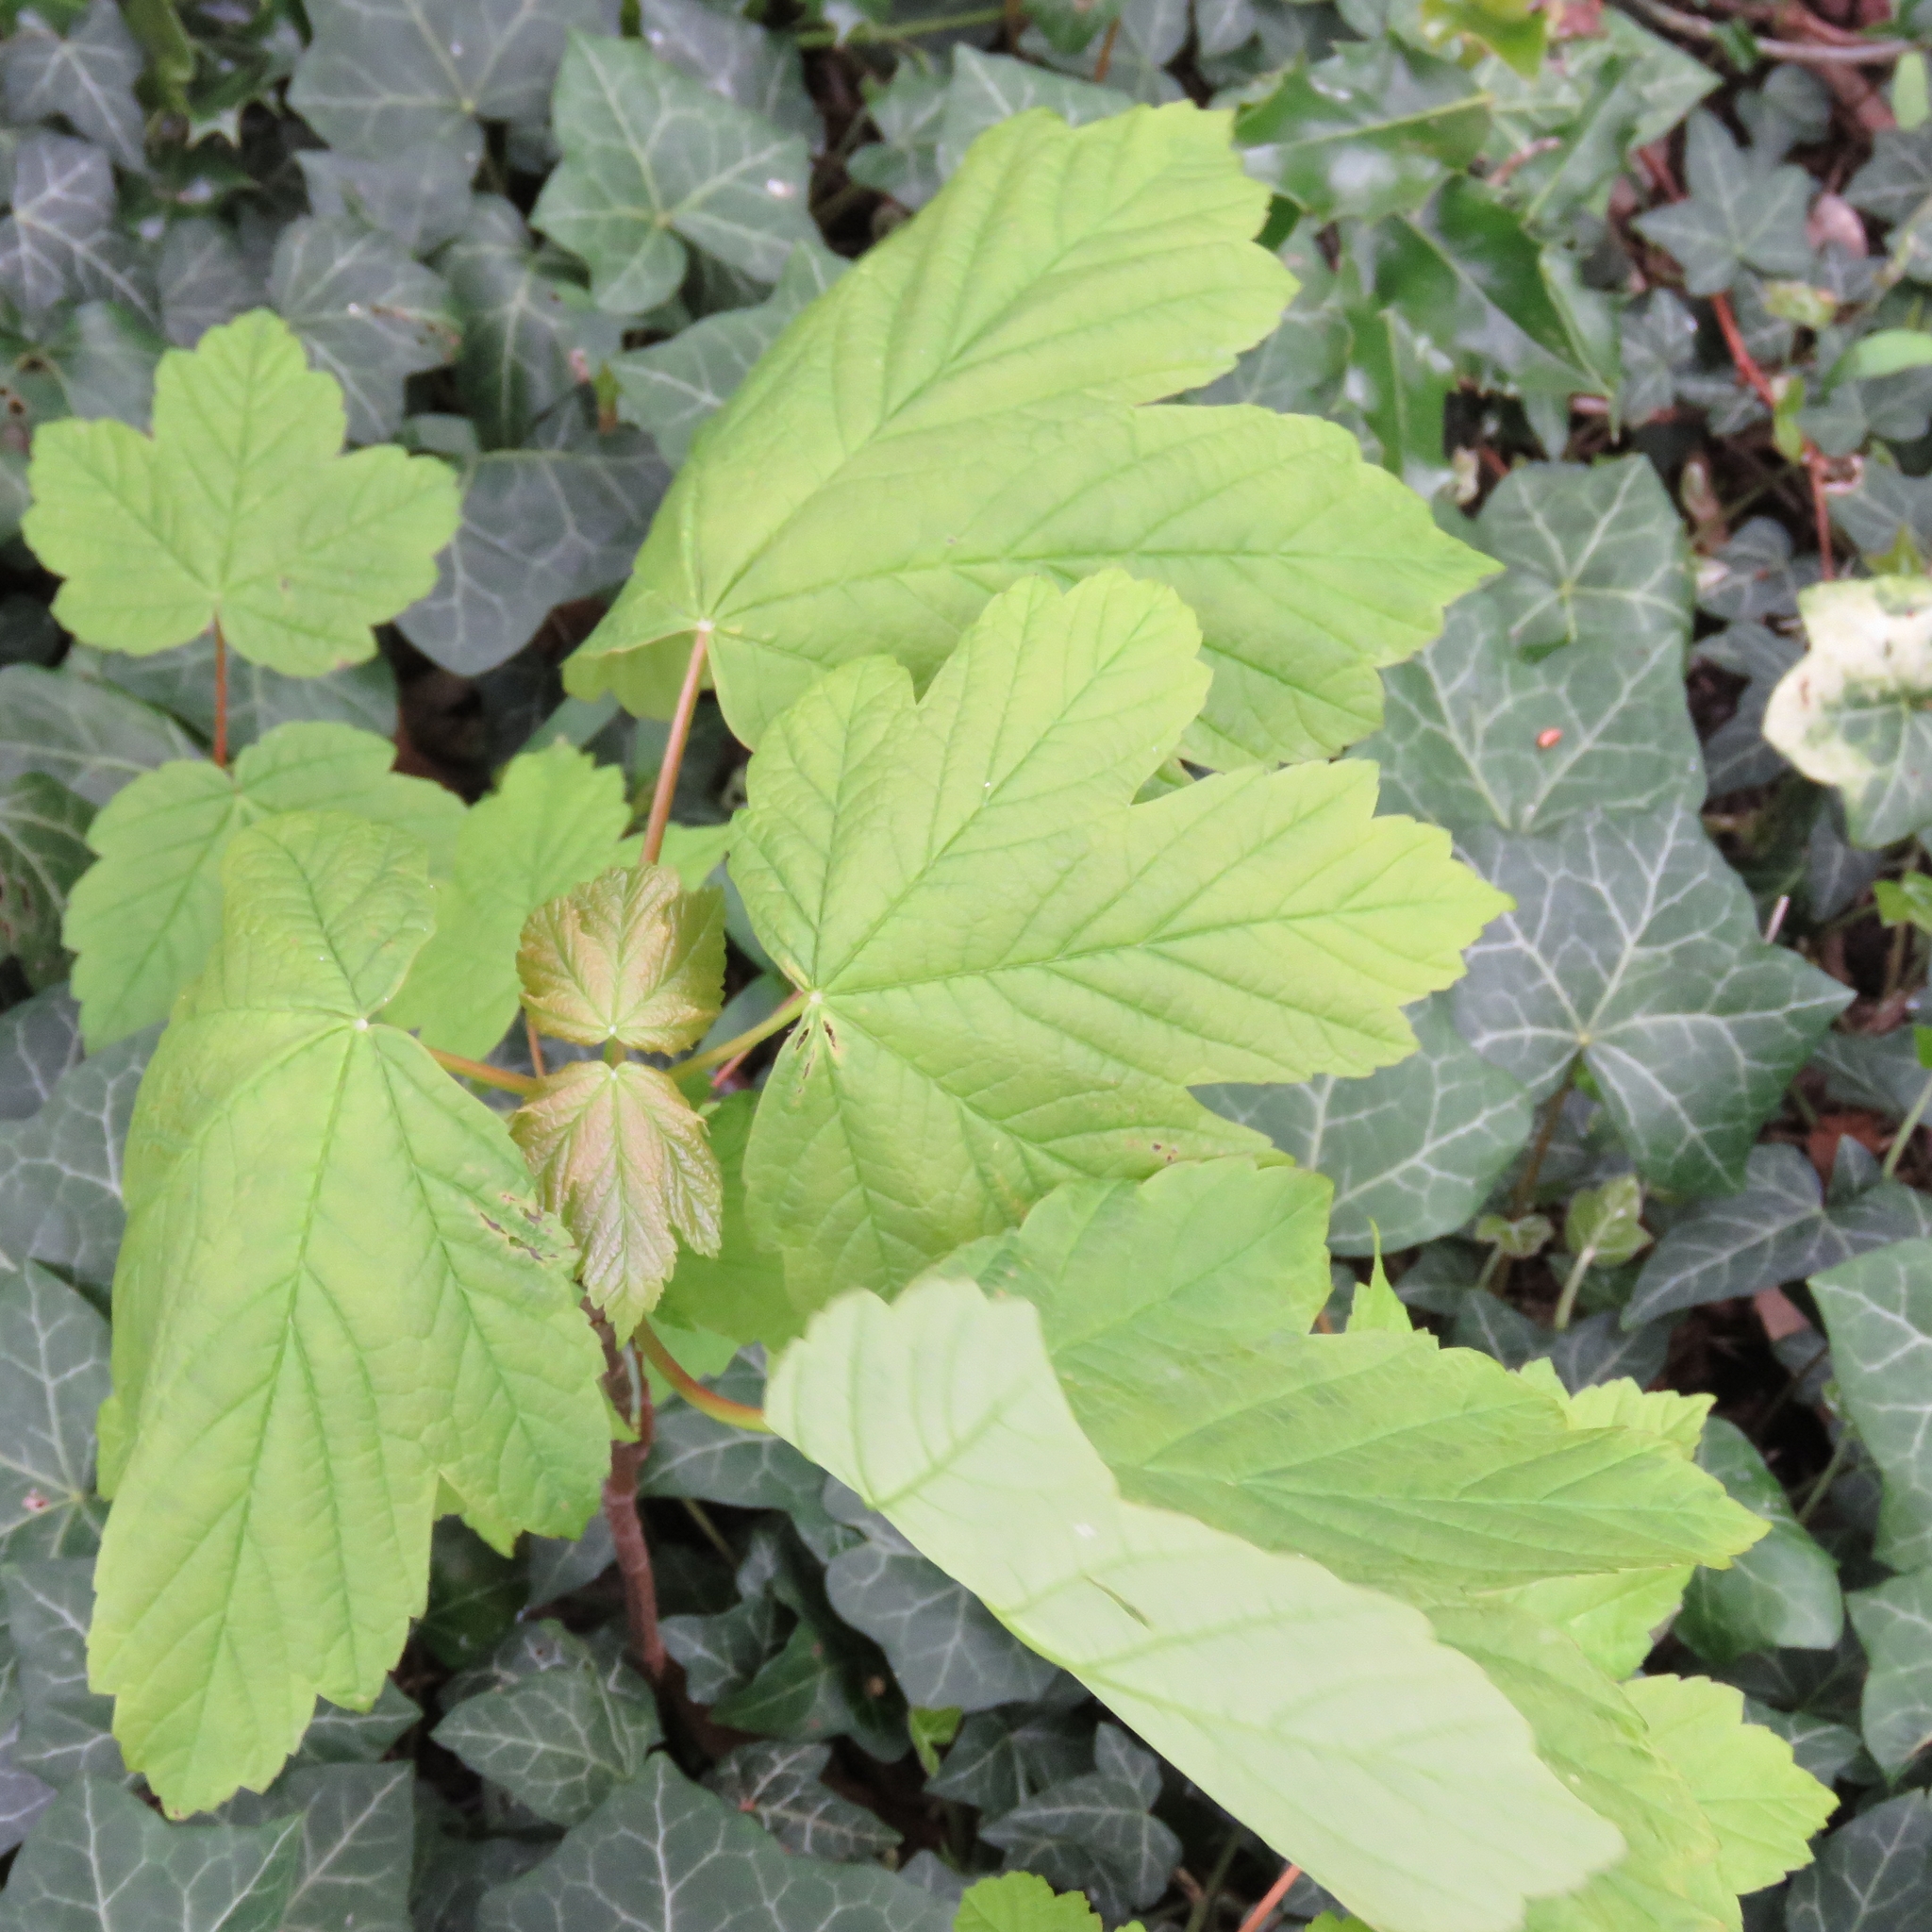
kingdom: Plantae
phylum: Tracheophyta
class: Magnoliopsida
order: Sapindales
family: Sapindaceae
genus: Acer
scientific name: Acer pseudoplatanus
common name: Sycamore
